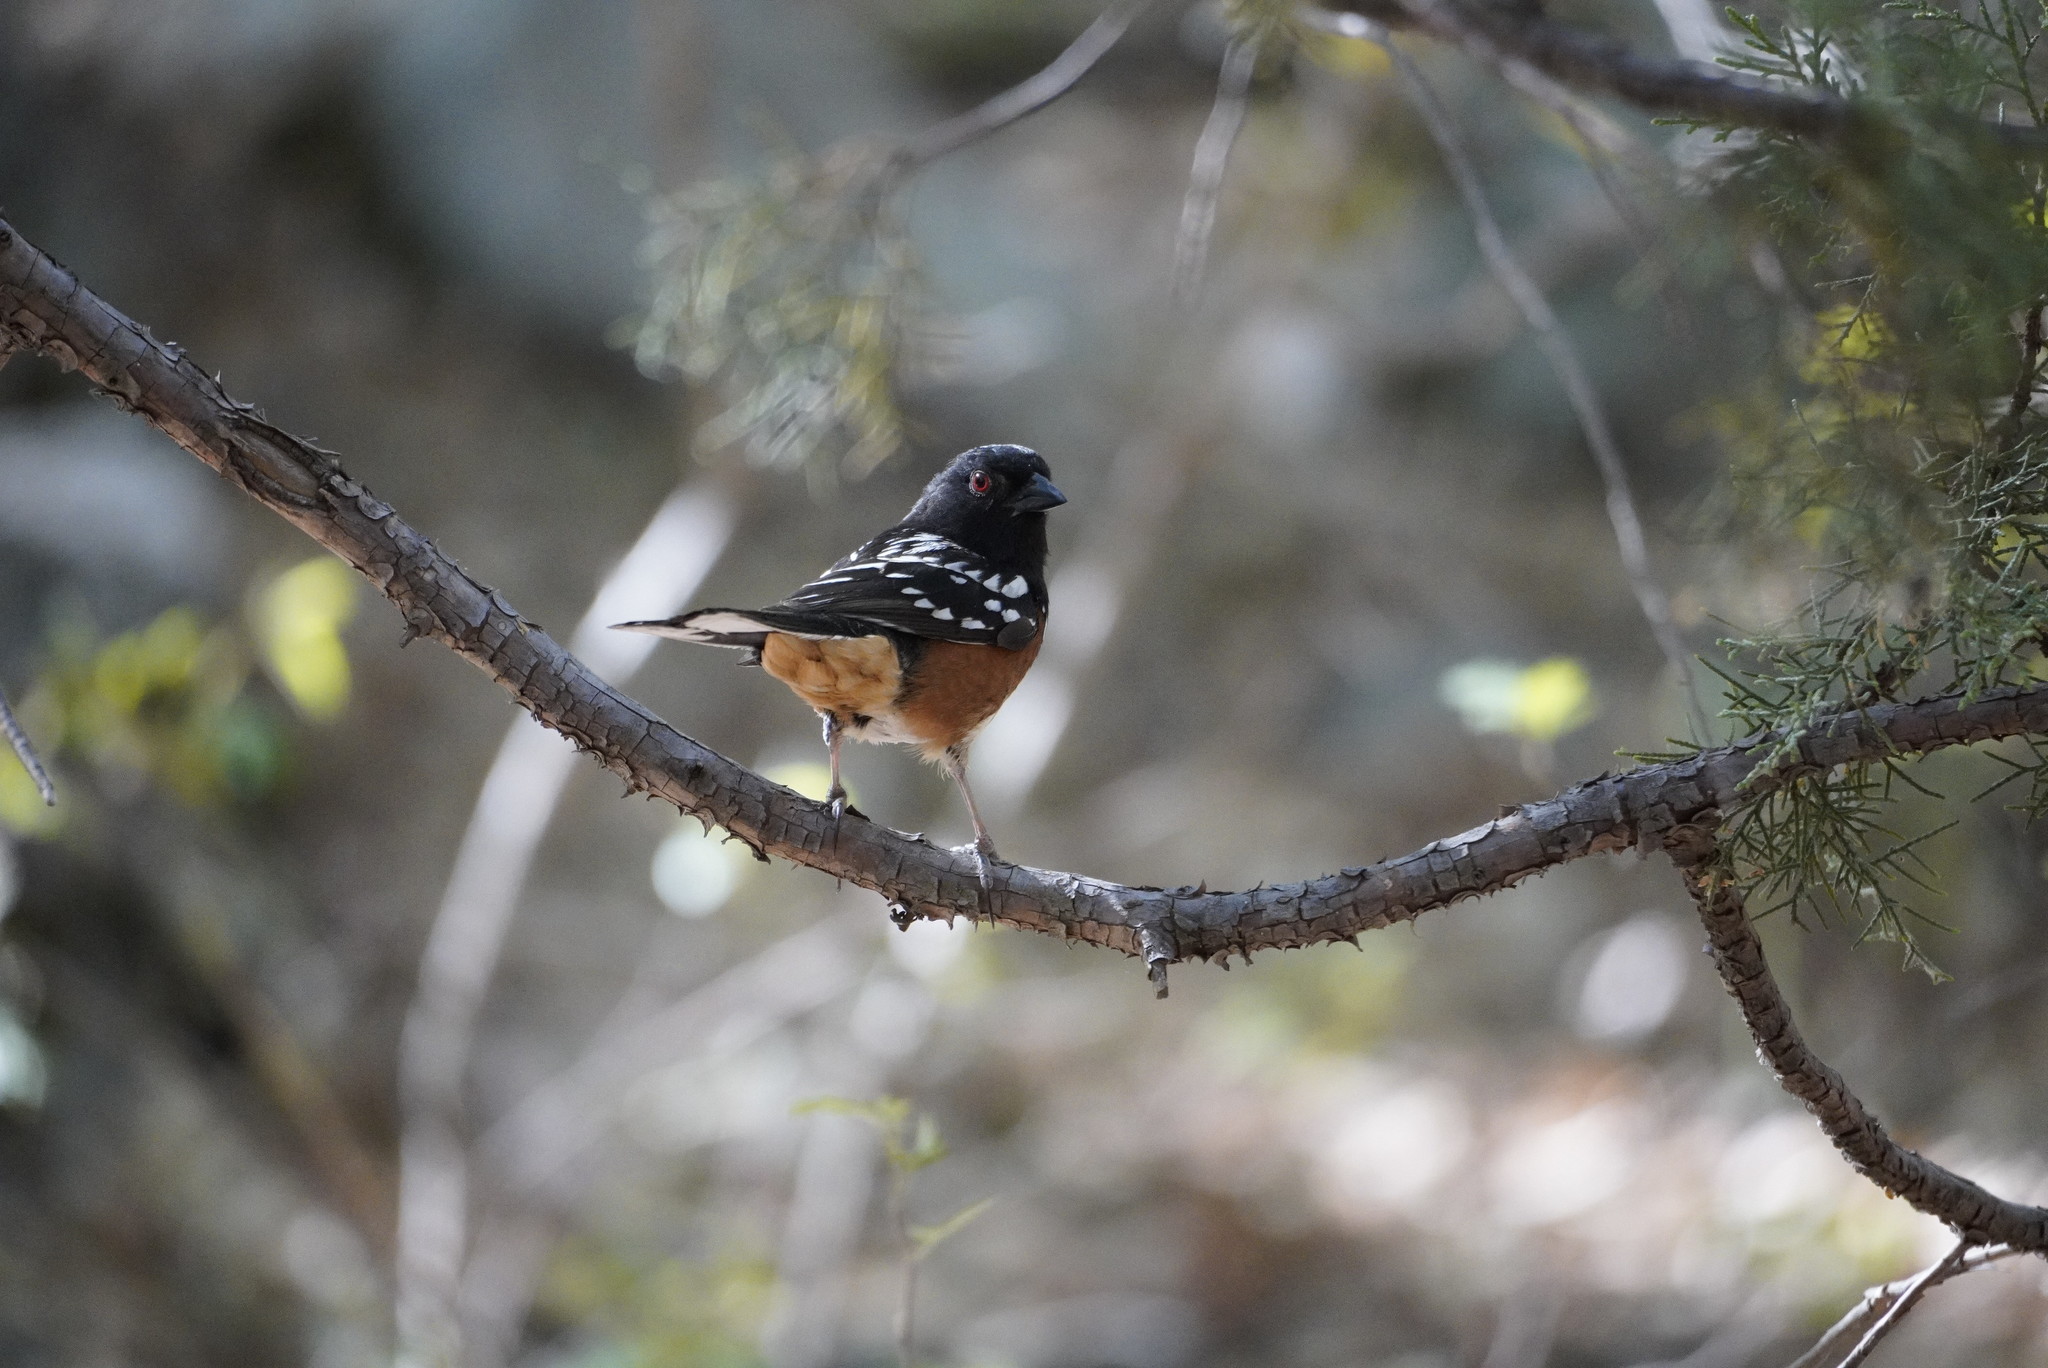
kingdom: Animalia
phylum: Chordata
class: Aves
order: Passeriformes
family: Passerellidae
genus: Pipilo
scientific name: Pipilo maculatus
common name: Spotted towhee
